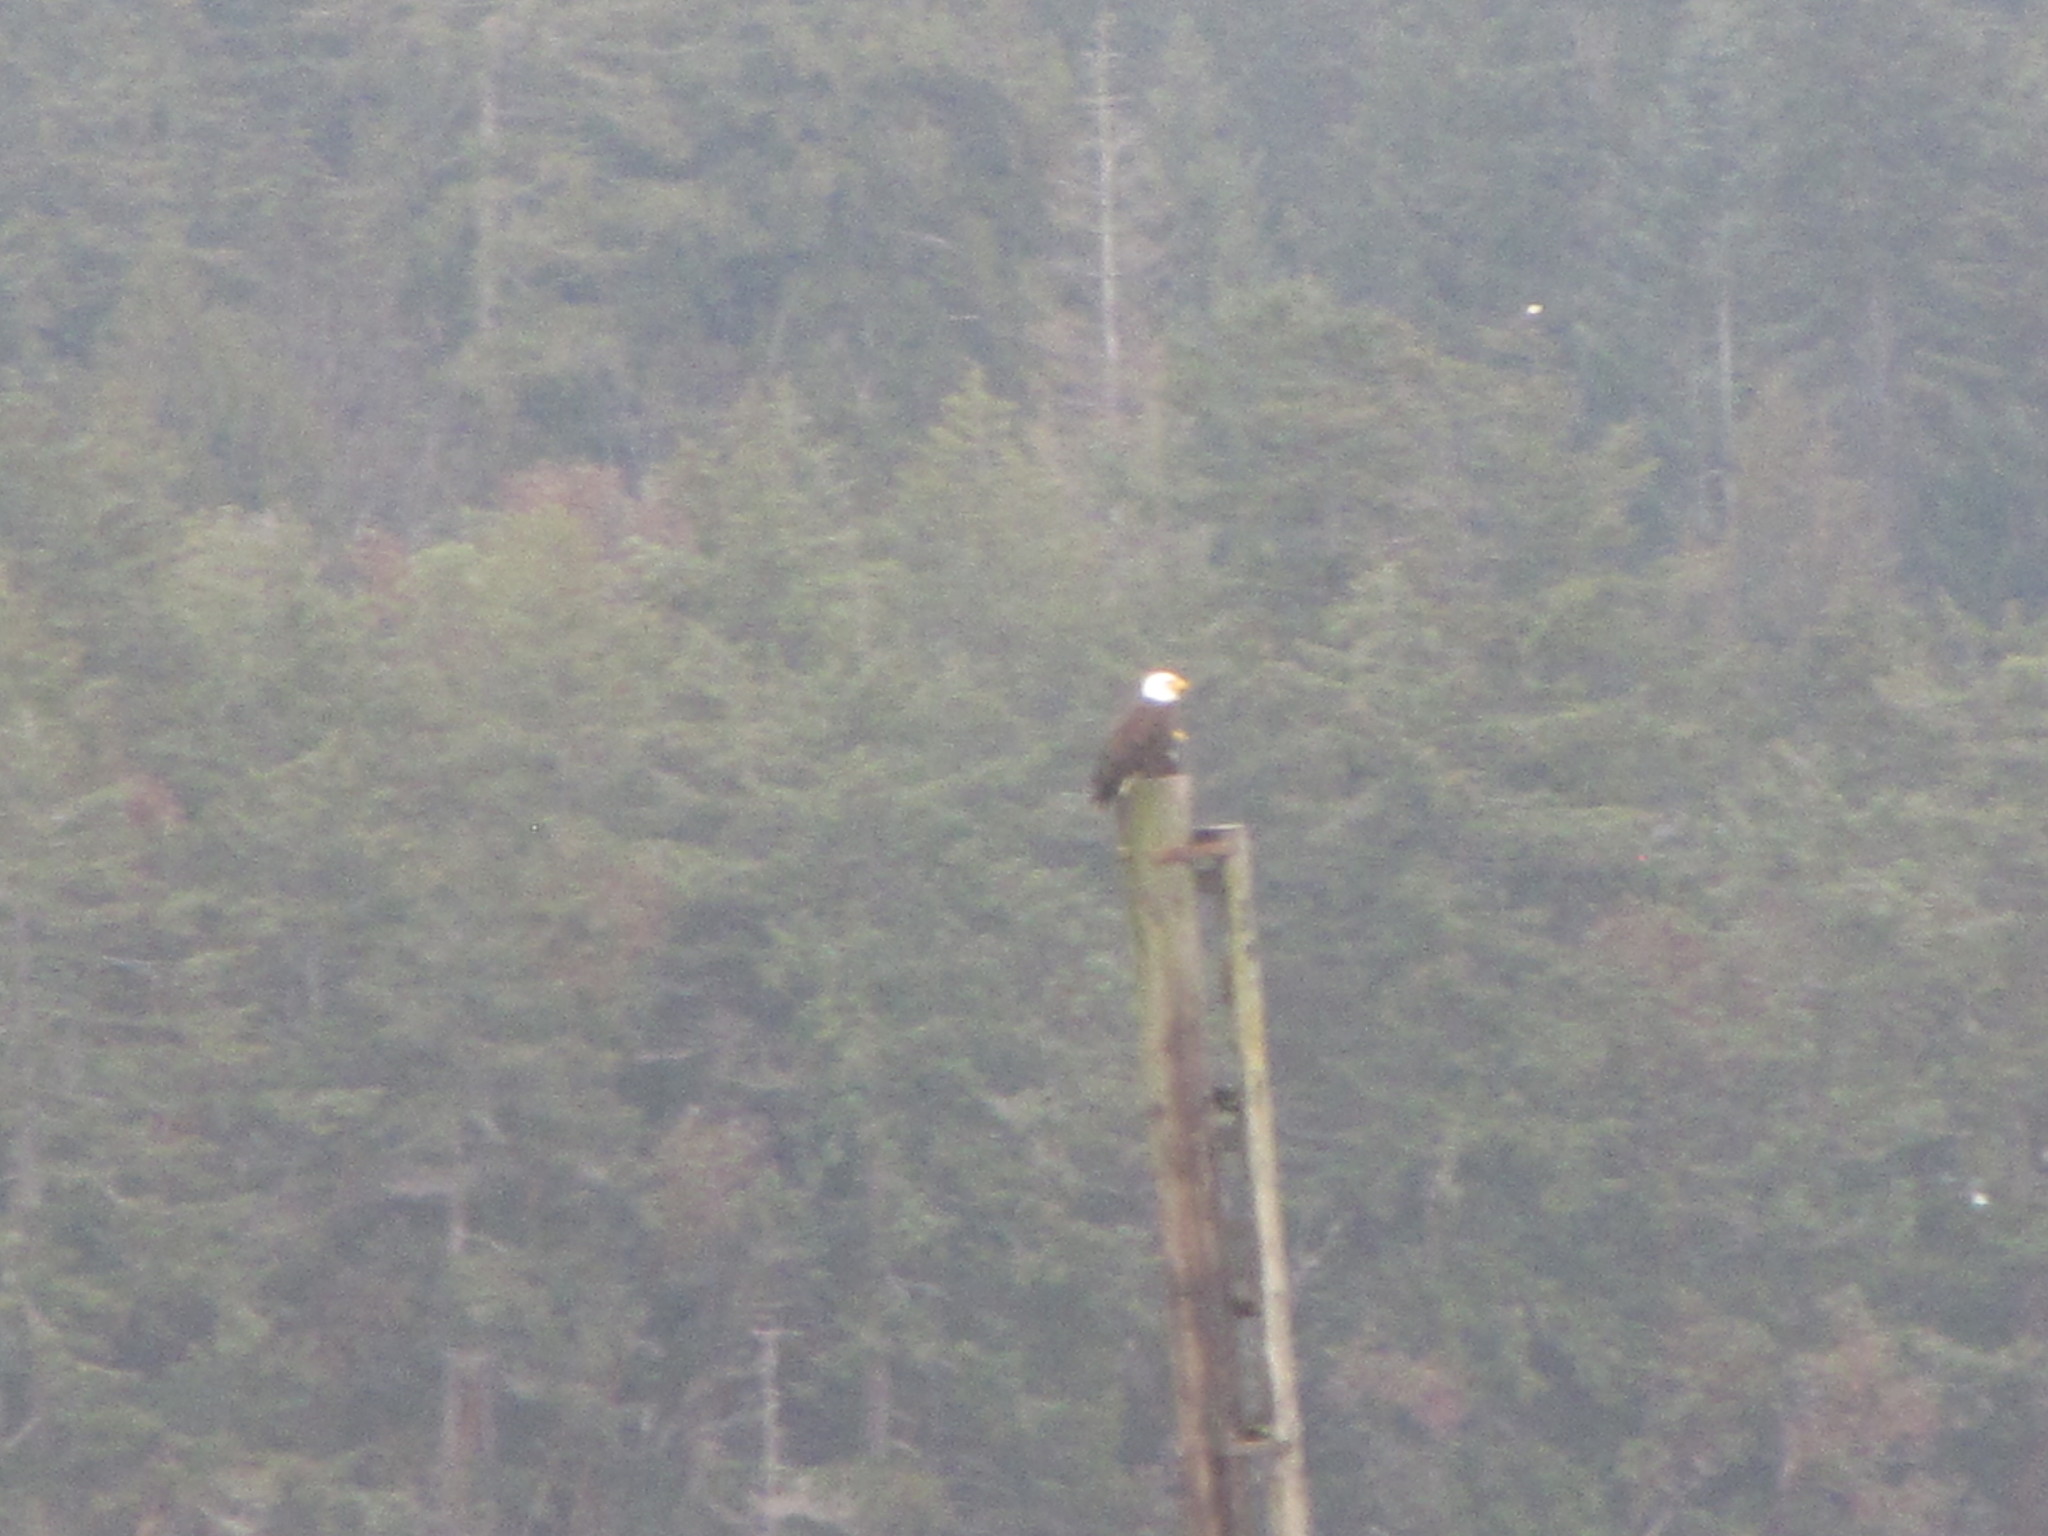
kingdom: Animalia
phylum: Chordata
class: Aves
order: Accipitriformes
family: Accipitridae
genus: Haliaeetus
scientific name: Haliaeetus leucocephalus
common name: Bald eagle
